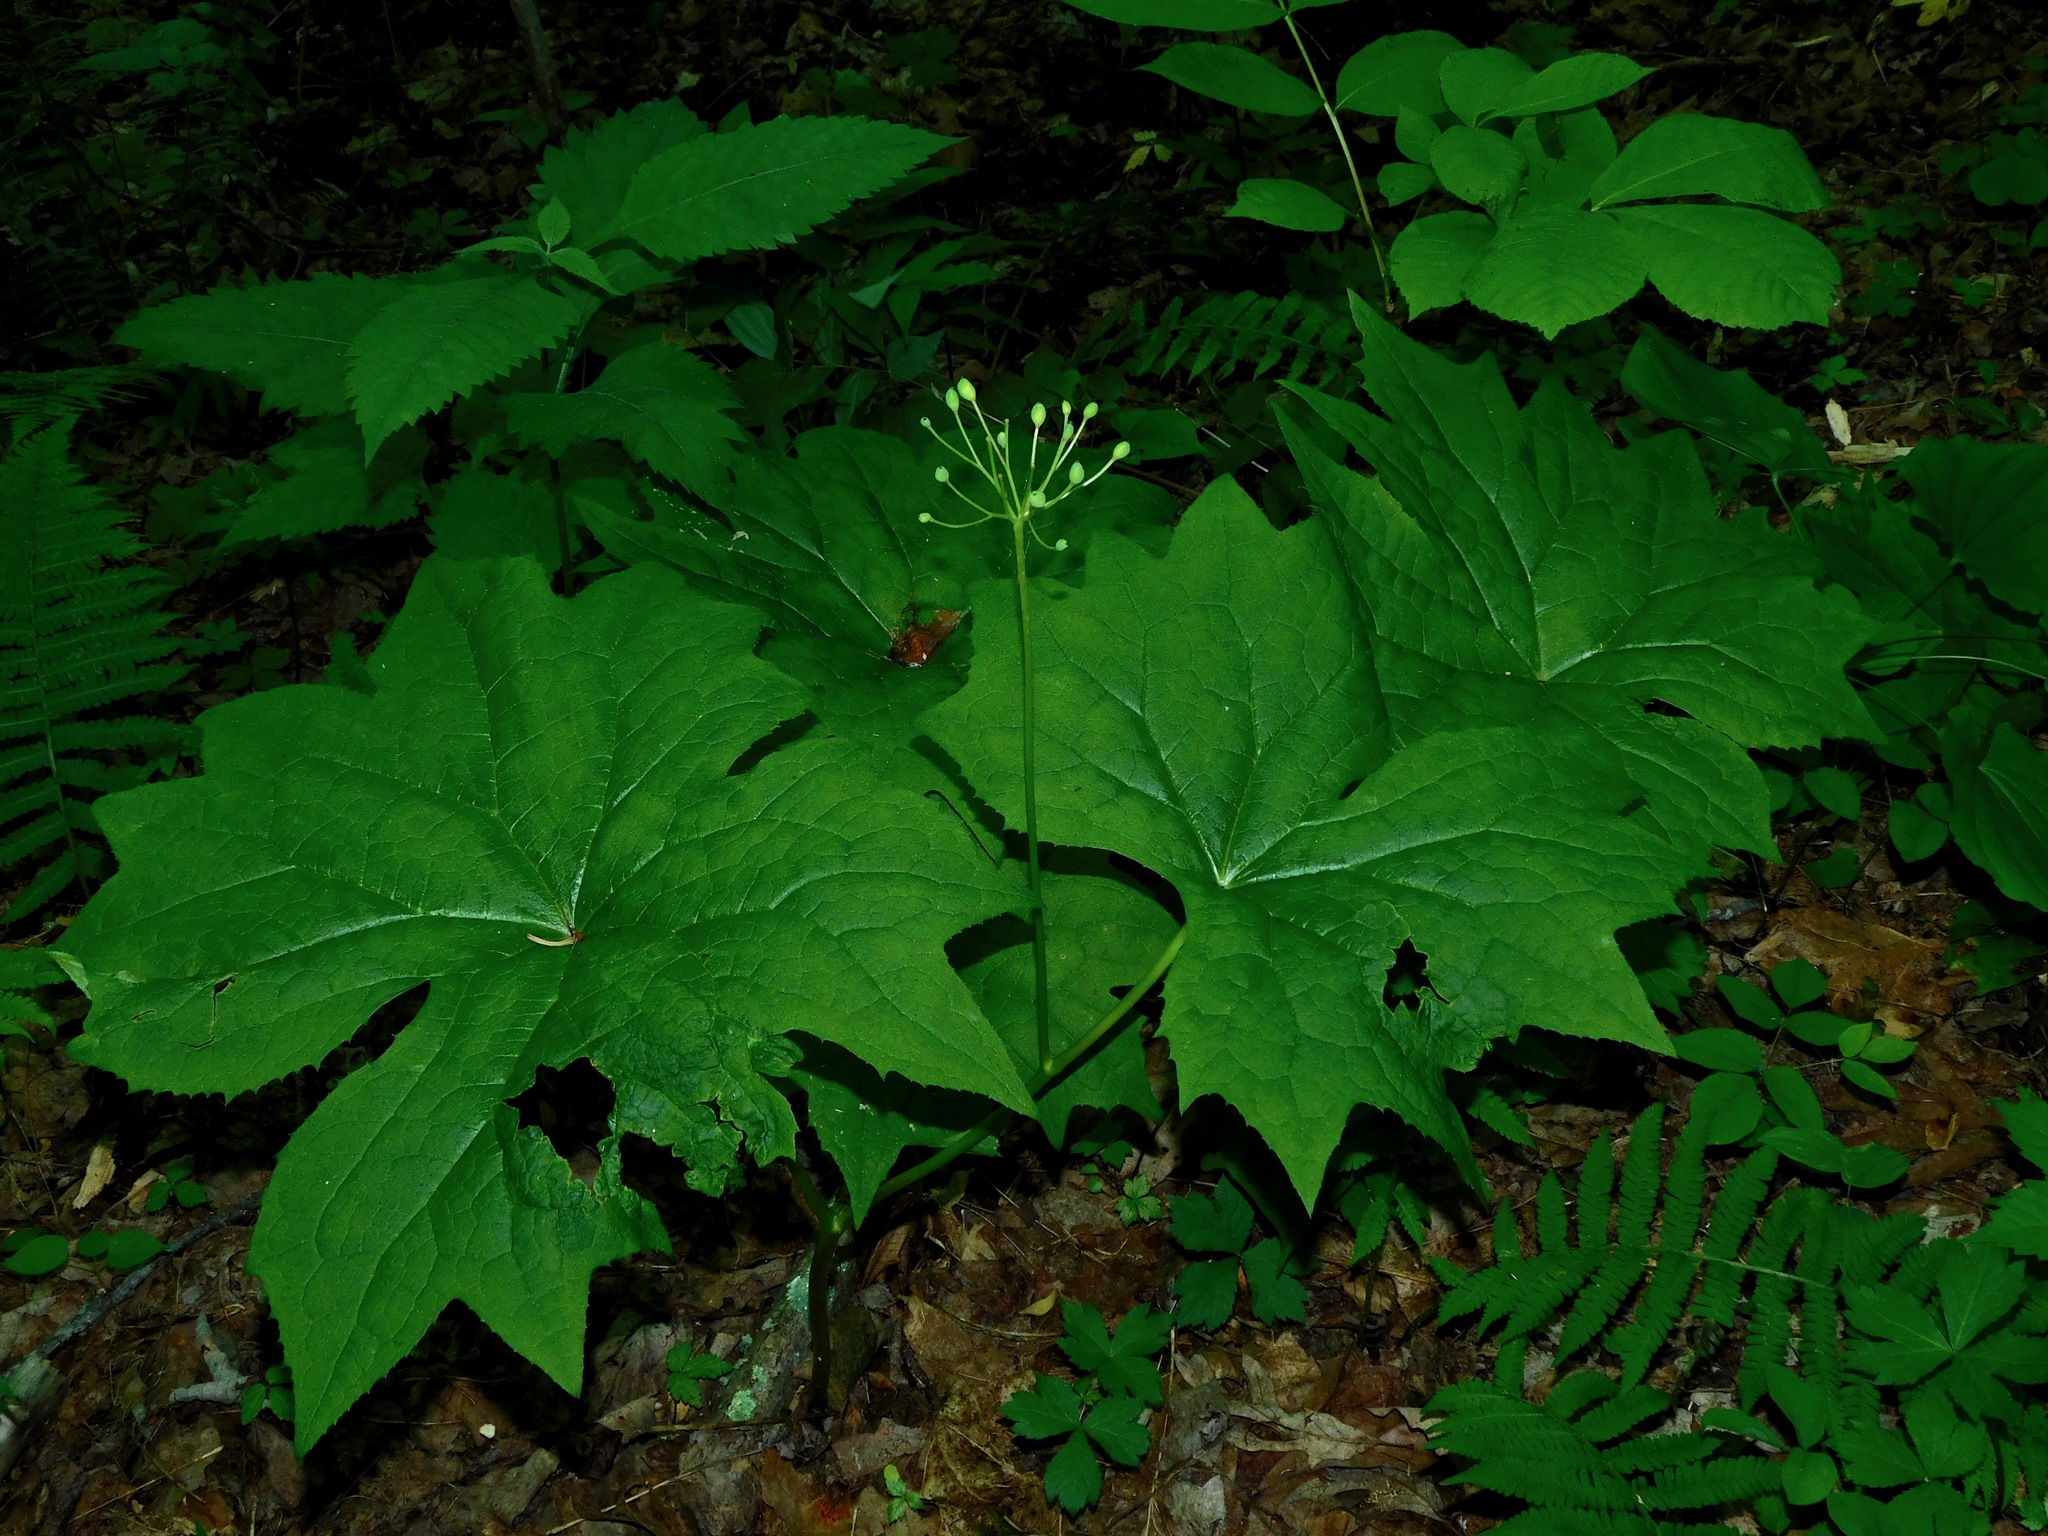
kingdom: Plantae
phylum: Tracheophyta
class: Magnoliopsida
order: Ranunculales
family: Berberidaceae
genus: Diphylleia
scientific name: Diphylleia cymosa
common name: Umbrella-leaf
